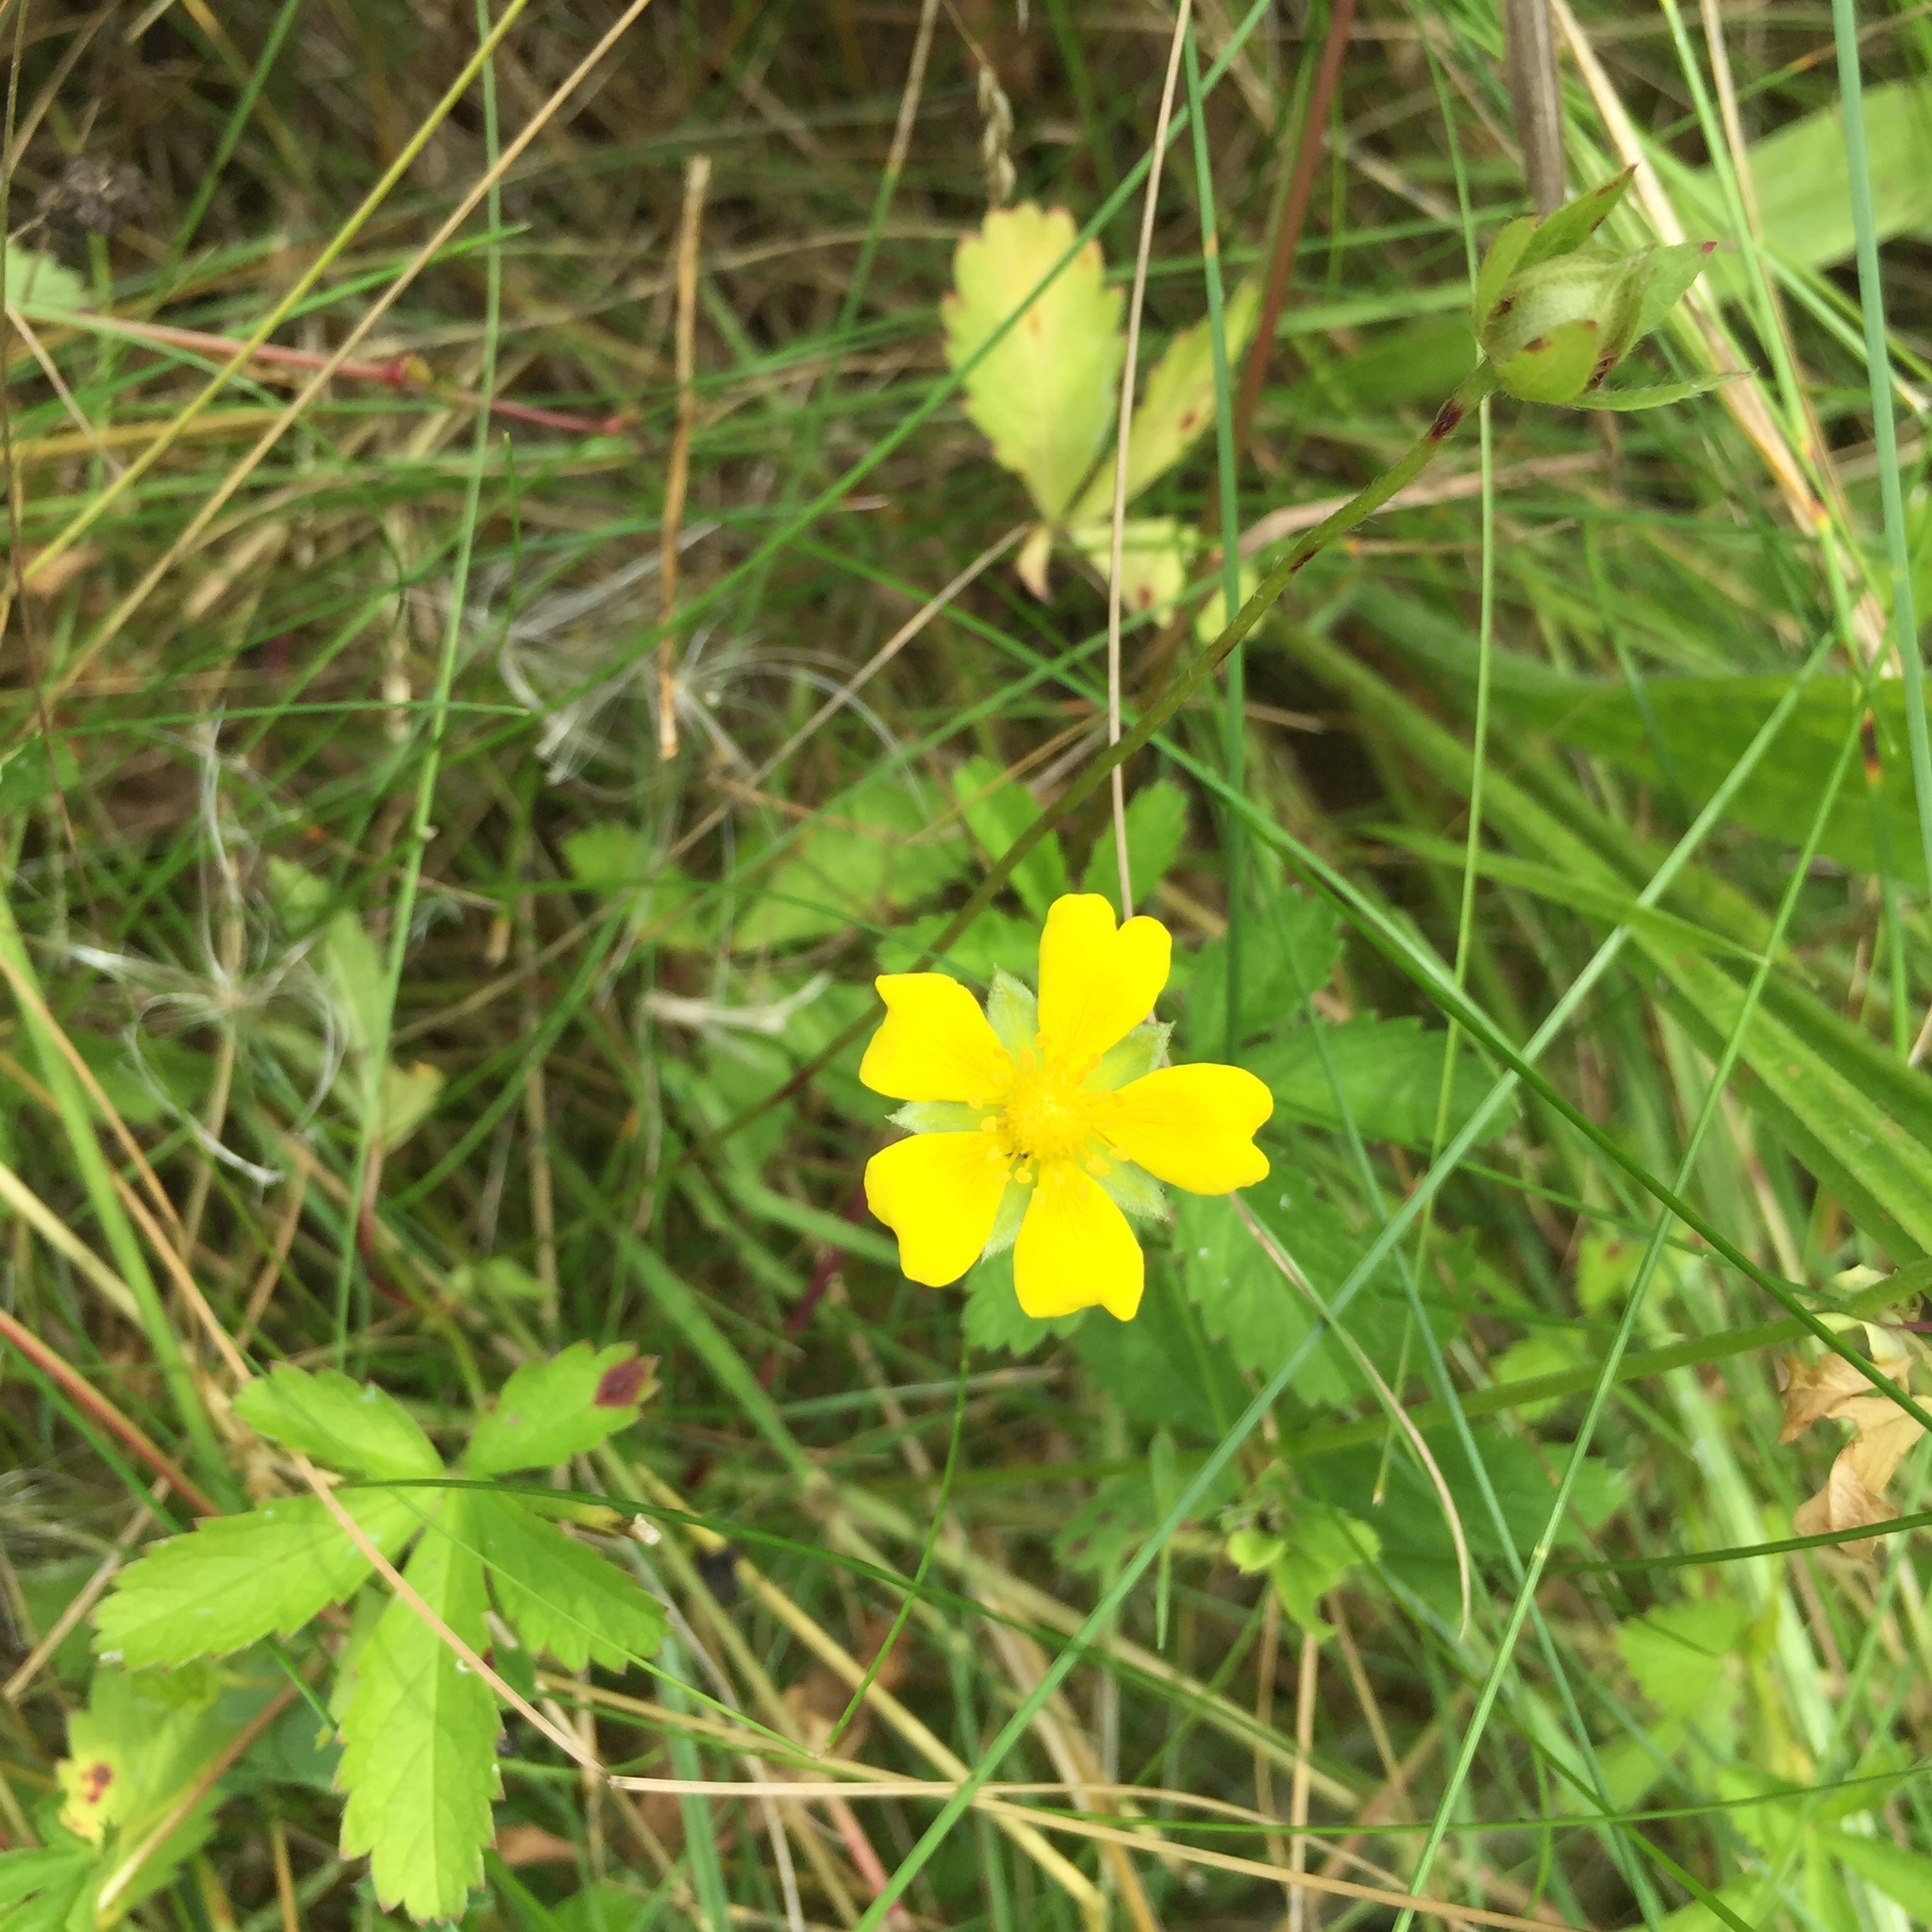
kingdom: Plantae
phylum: Tracheophyta
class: Magnoliopsida
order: Rosales
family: Rosaceae
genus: Potentilla
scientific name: Potentilla reptans
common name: Creeping cinquefoil
